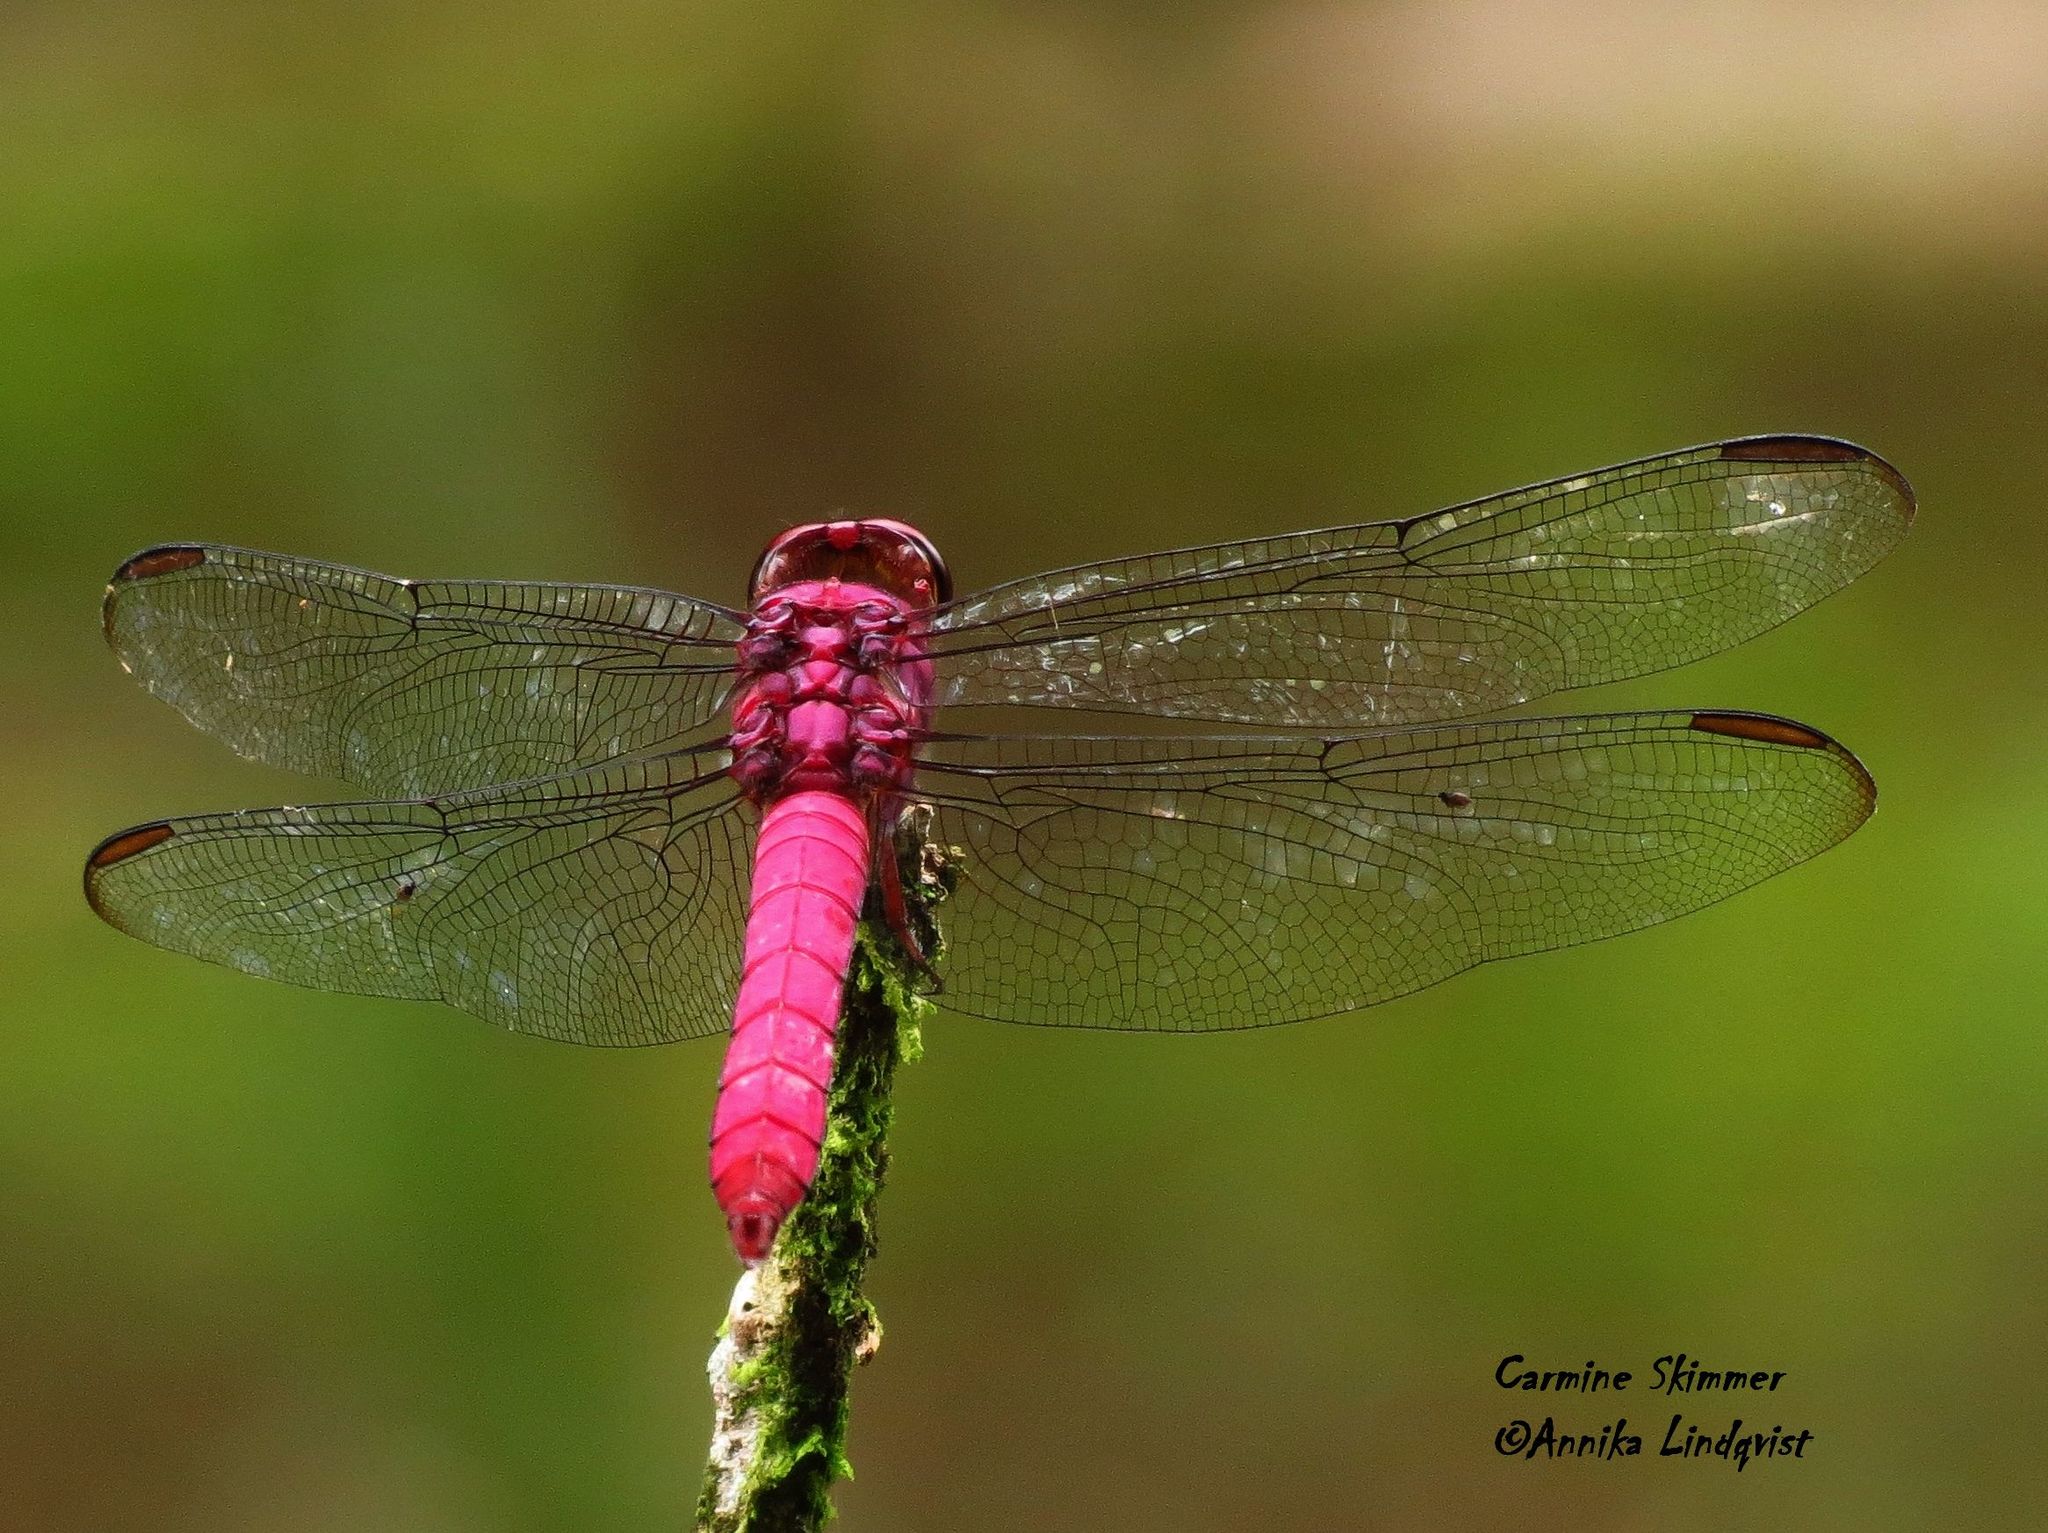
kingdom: Animalia
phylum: Arthropoda
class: Insecta
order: Odonata
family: Libellulidae
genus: Orthemis
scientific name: Orthemis discolor
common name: Carmine skimmer
